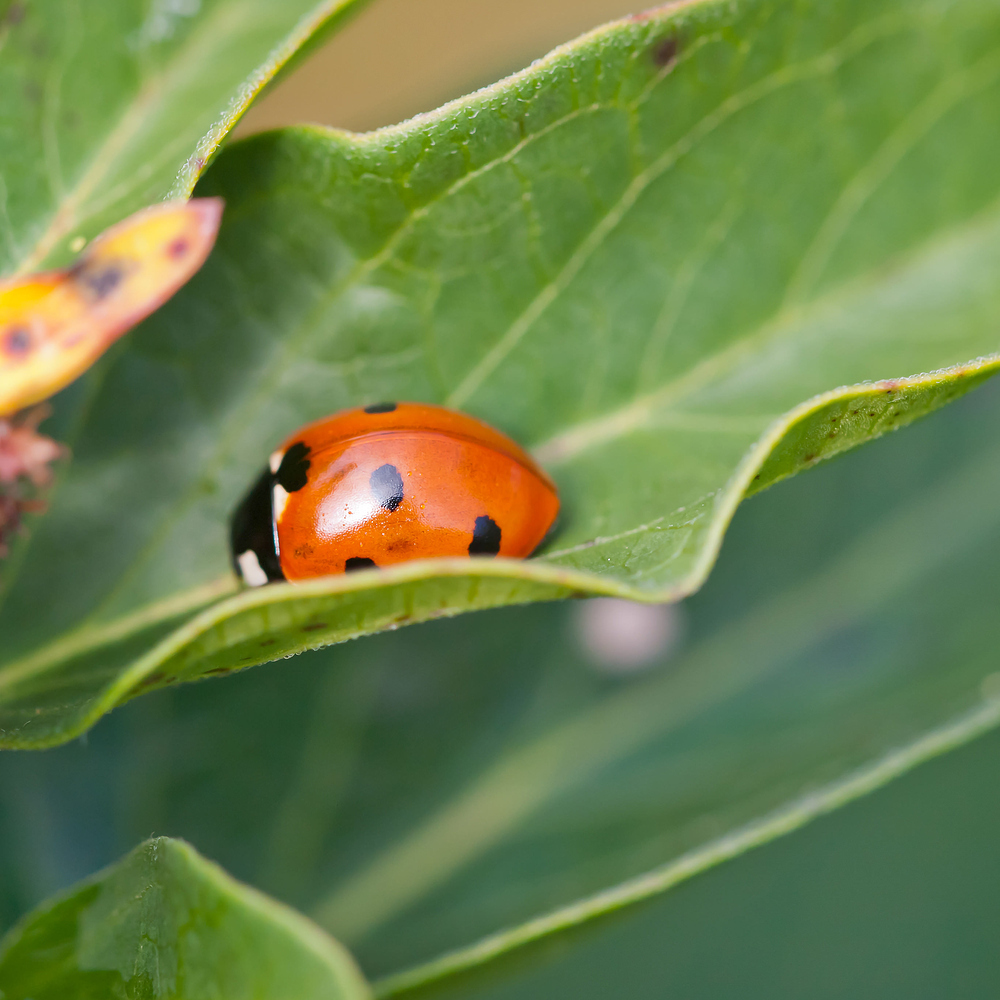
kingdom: Animalia
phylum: Arthropoda
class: Insecta
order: Coleoptera
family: Coccinellidae
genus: Coccinella
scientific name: Coccinella septempunctata
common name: Sevenspotted lady beetle
